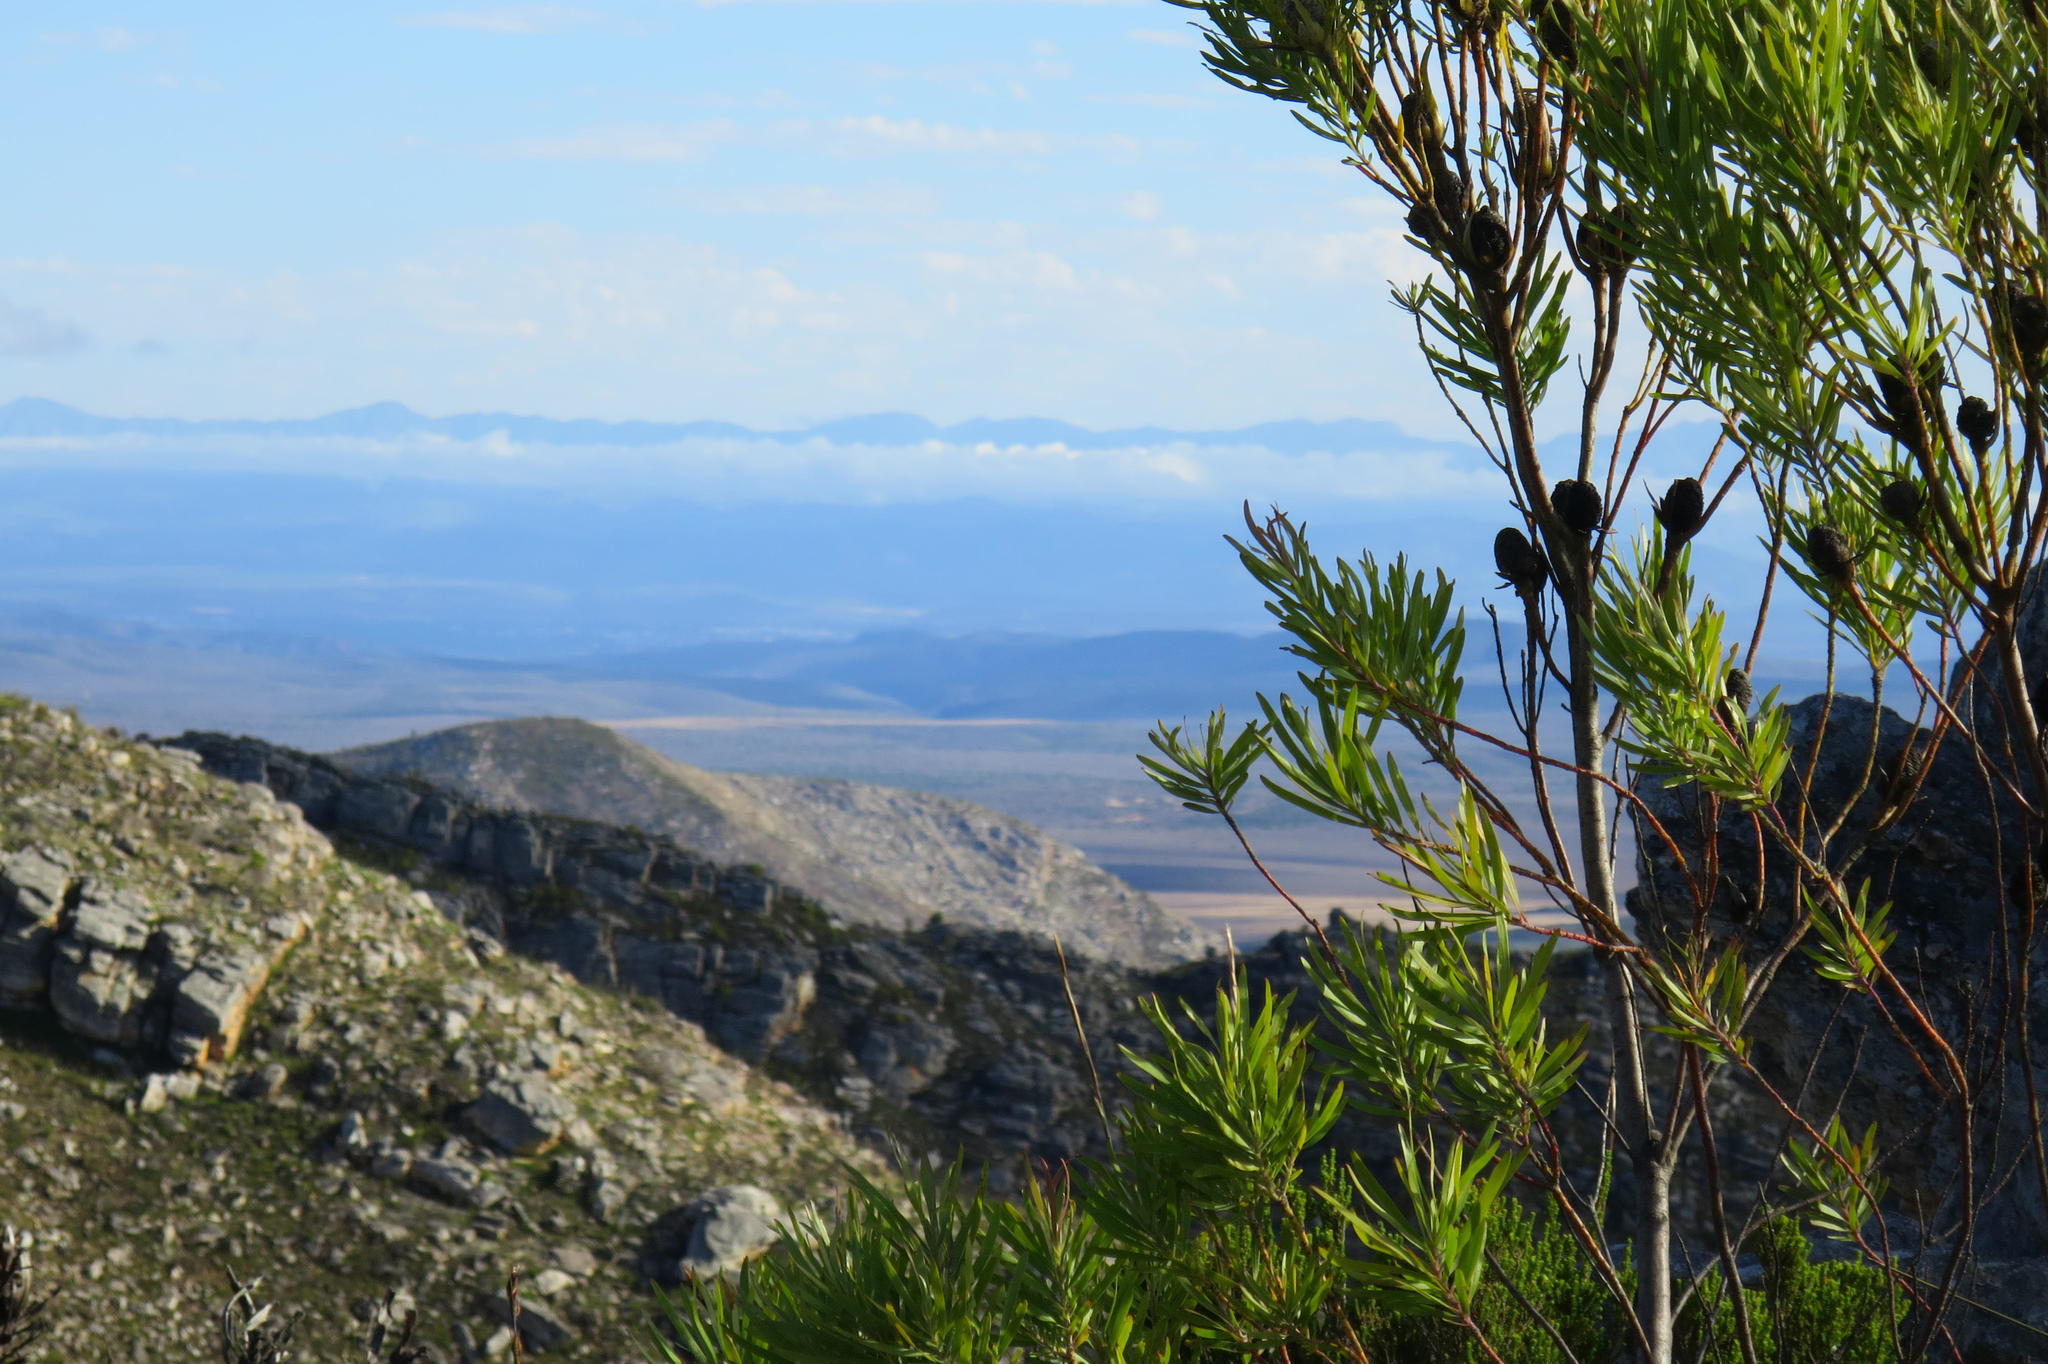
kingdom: Plantae
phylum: Tracheophyta
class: Magnoliopsida
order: Proteales
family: Proteaceae
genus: Leucadendron
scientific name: Leucadendron eucalyptifolium
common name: Gum-leaved conebush
